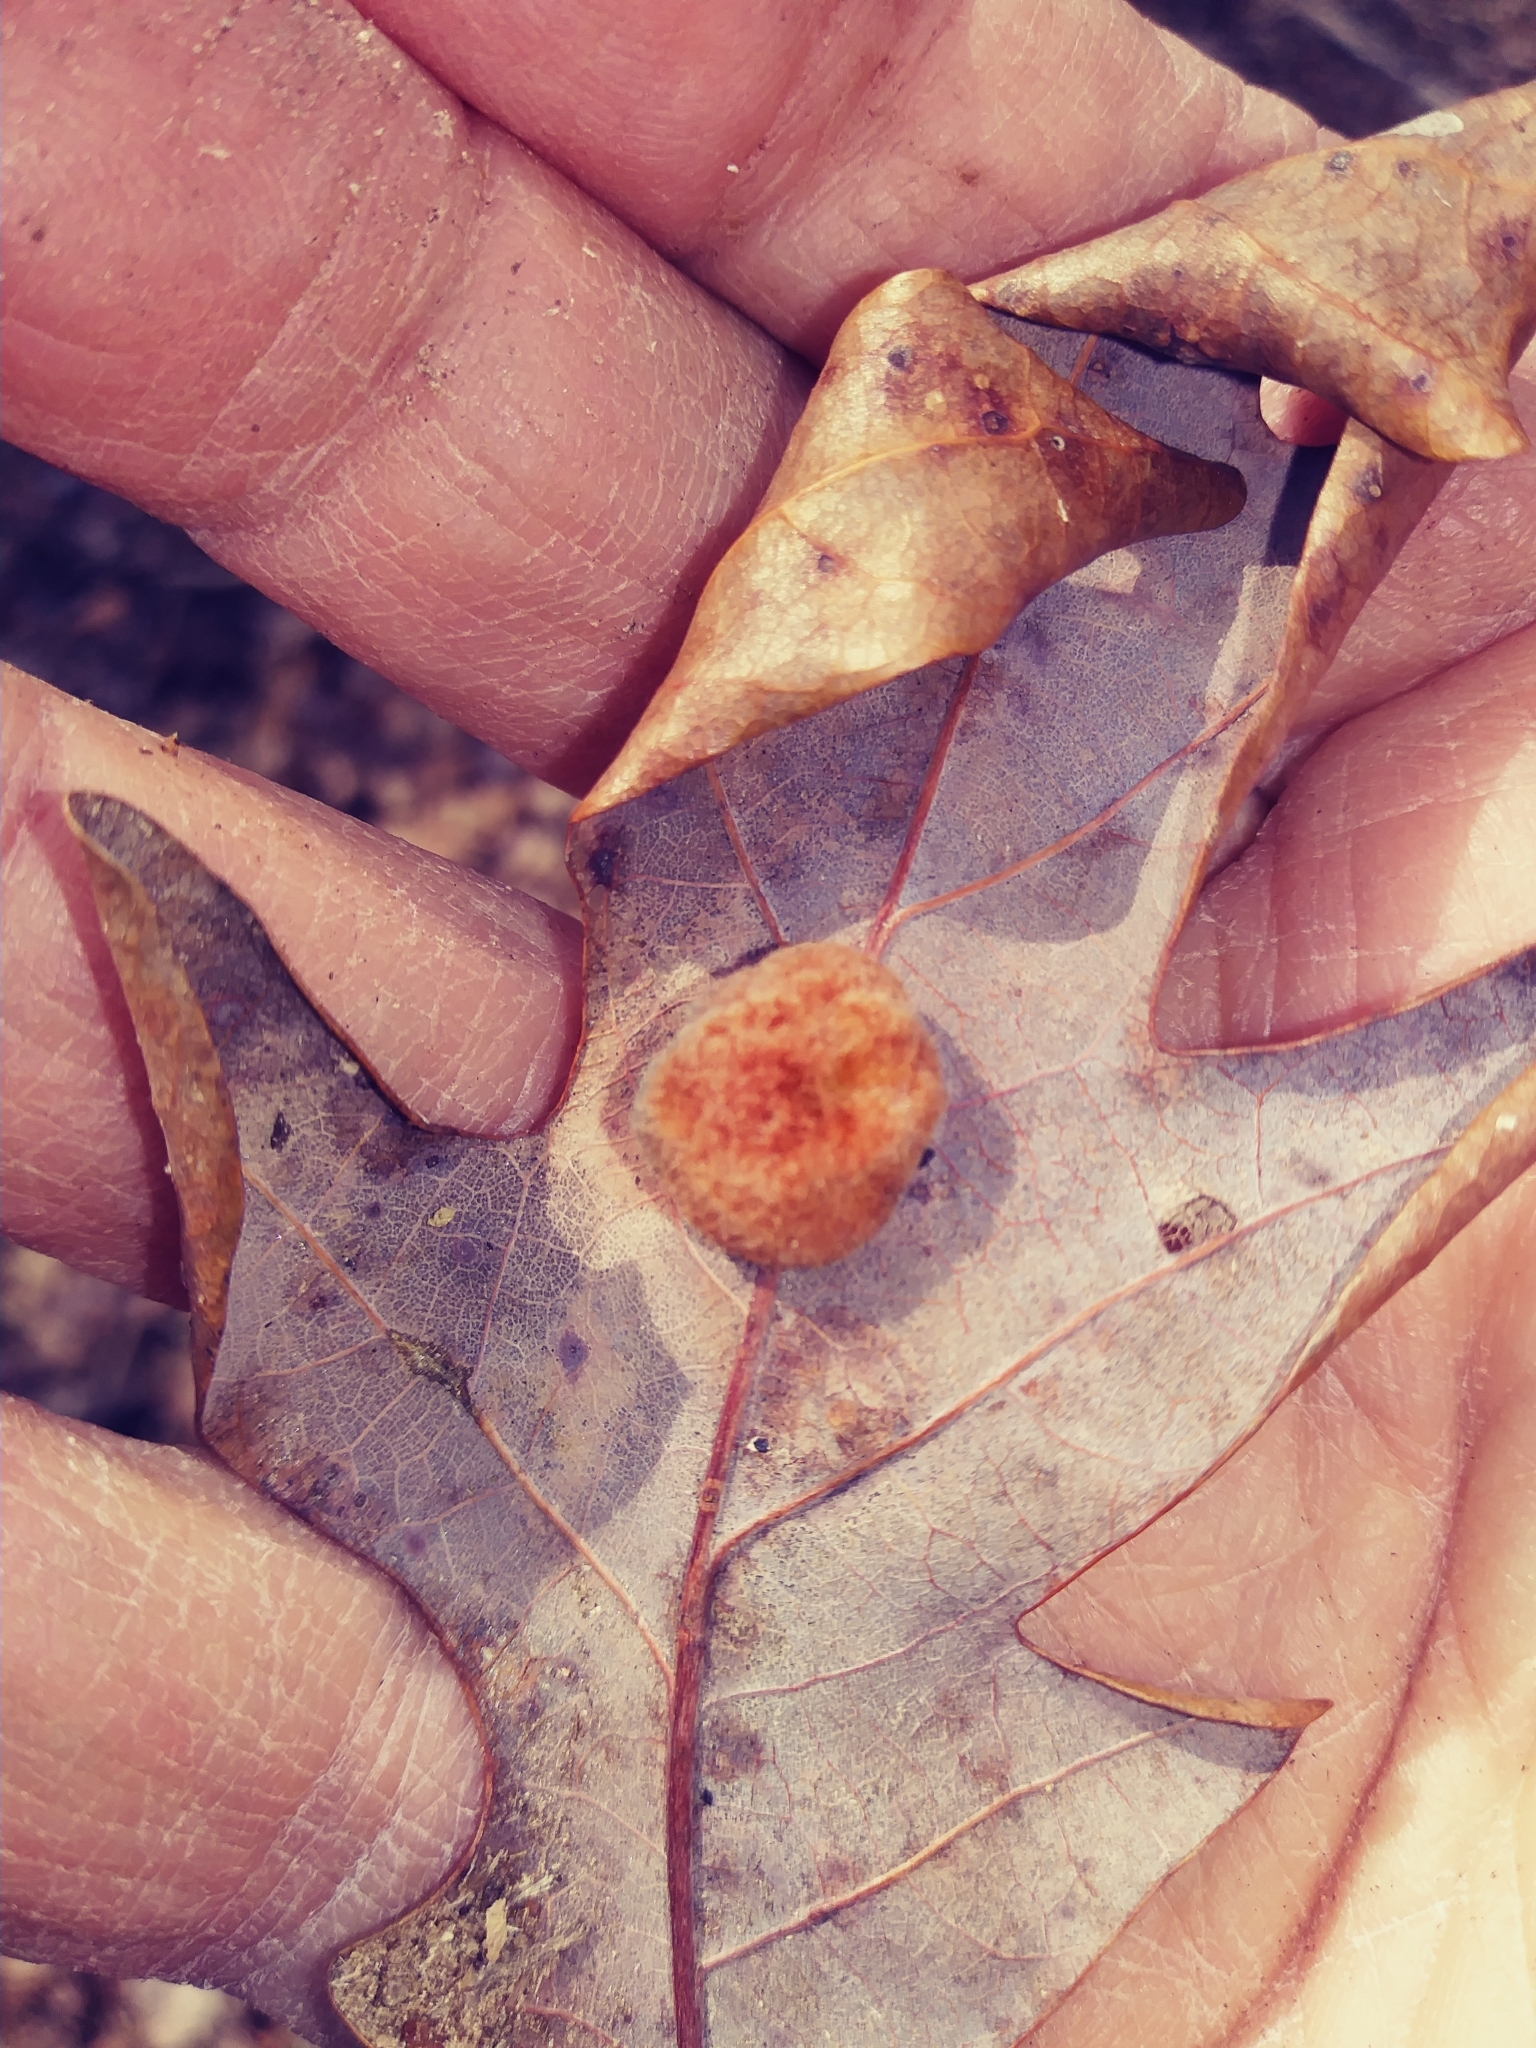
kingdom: Animalia
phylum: Arthropoda
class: Insecta
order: Hymenoptera
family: Cynipidae
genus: Andricus
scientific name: Andricus quercusflocci
